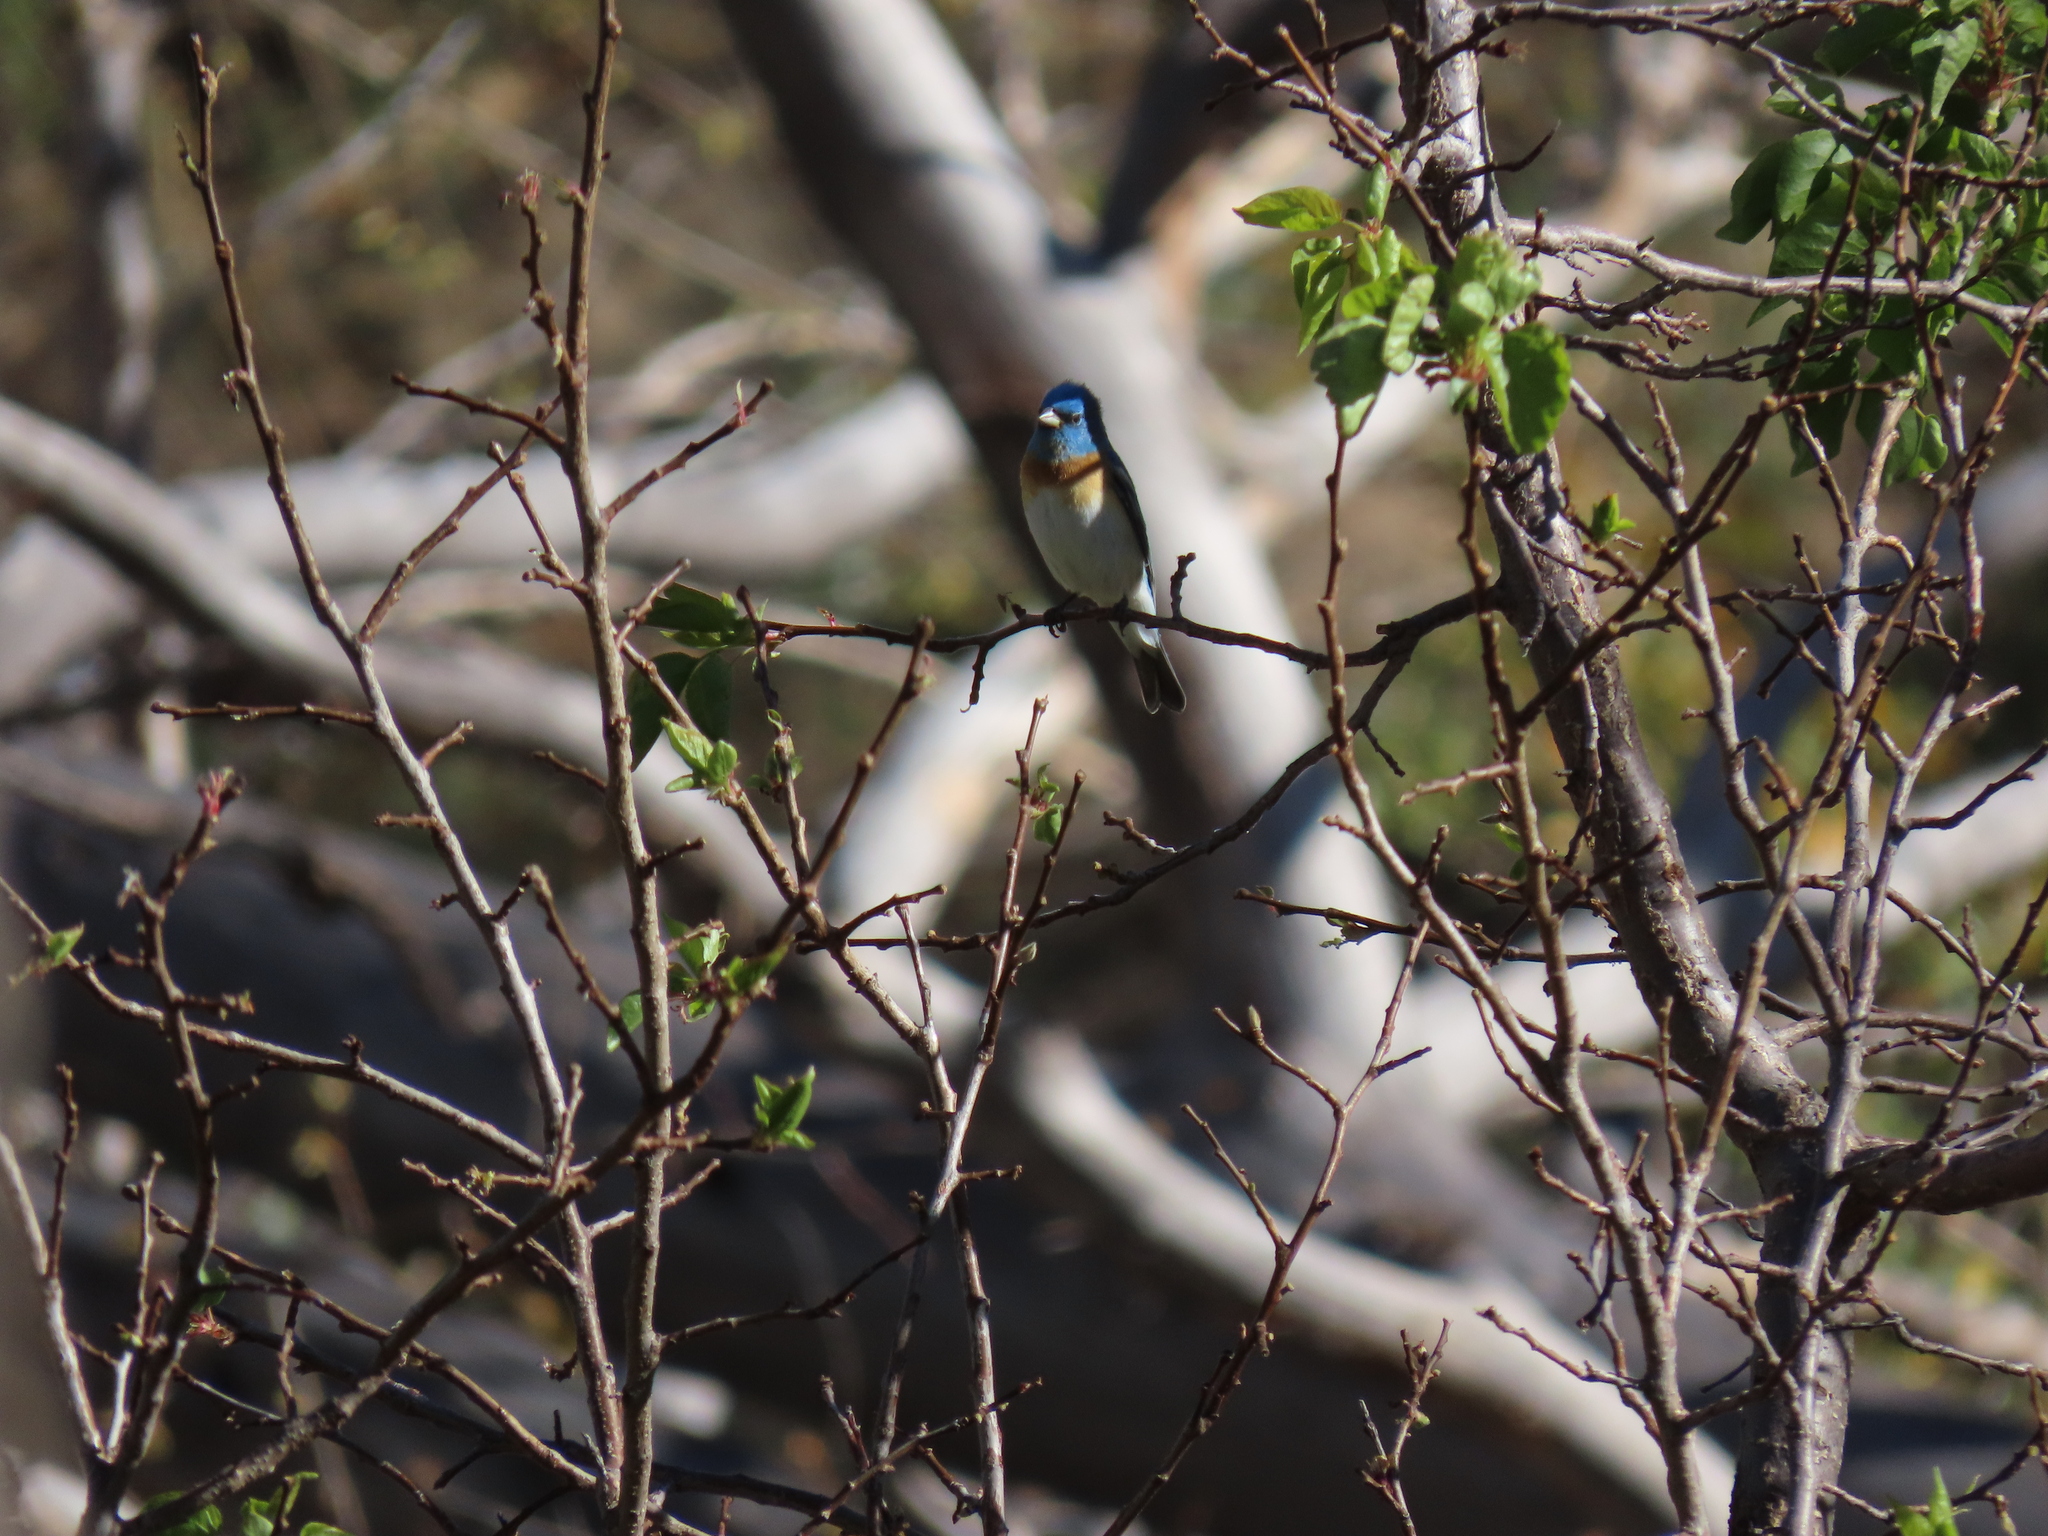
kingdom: Animalia
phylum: Chordata
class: Aves
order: Passeriformes
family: Cardinalidae
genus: Passerina
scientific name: Passerina amoena
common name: Lazuli bunting
